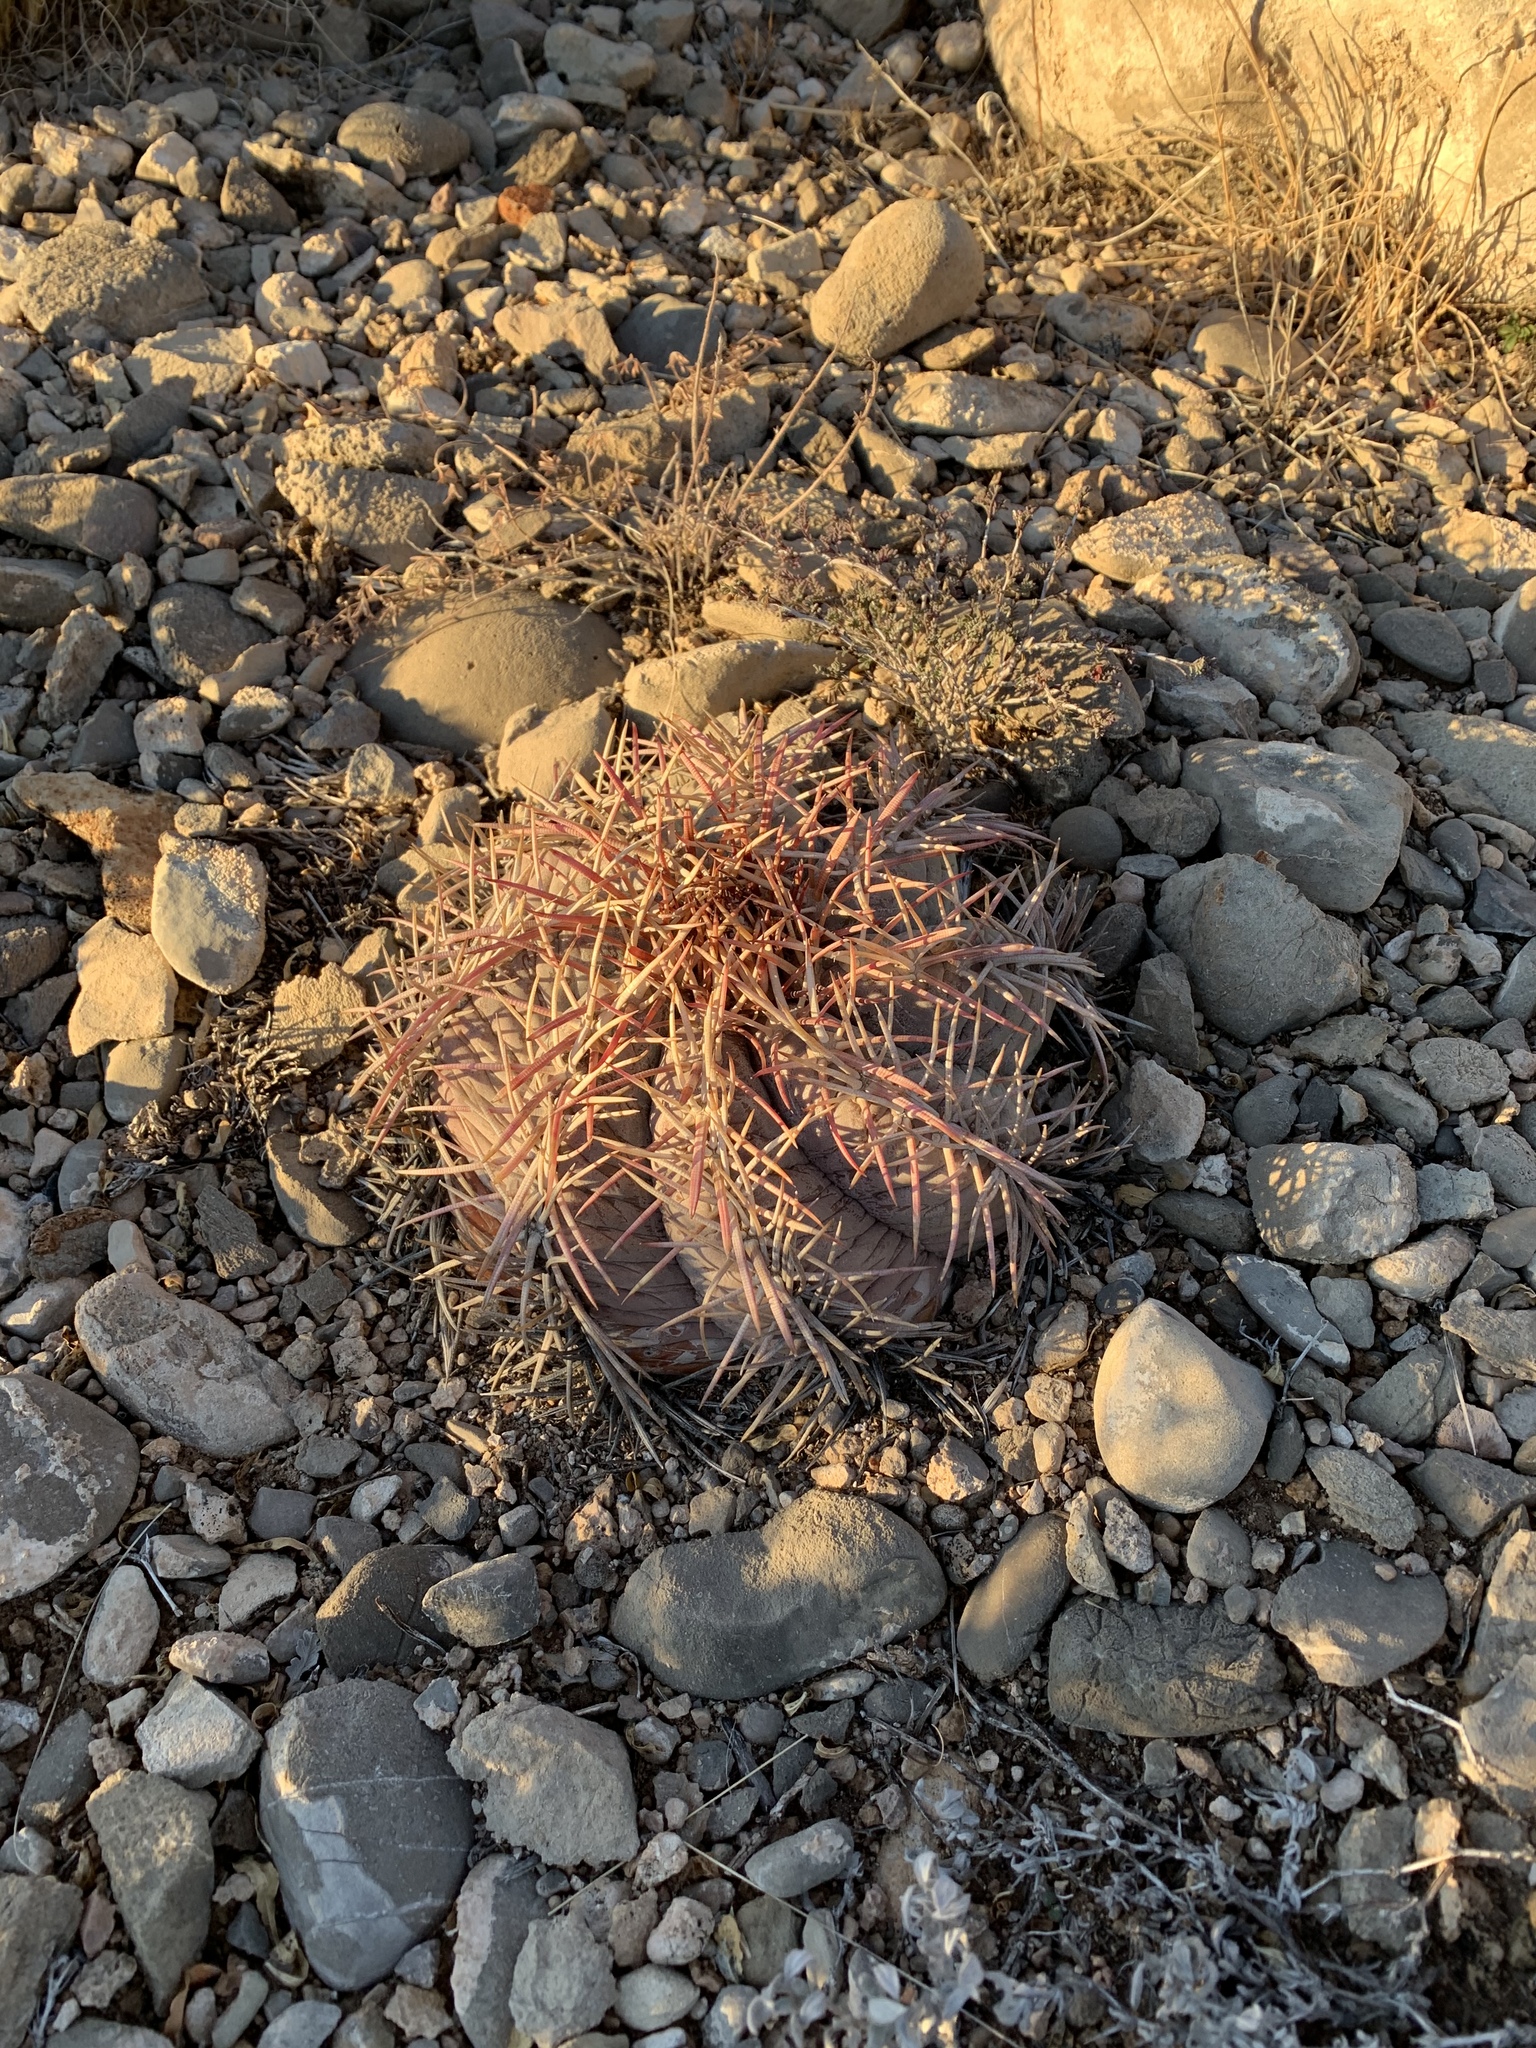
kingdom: Plantae
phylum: Tracheophyta
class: Magnoliopsida
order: Caryophyllales
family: Cactaceae
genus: Echinocactus
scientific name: Echinocactus horizonthalonius
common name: Devilshead
